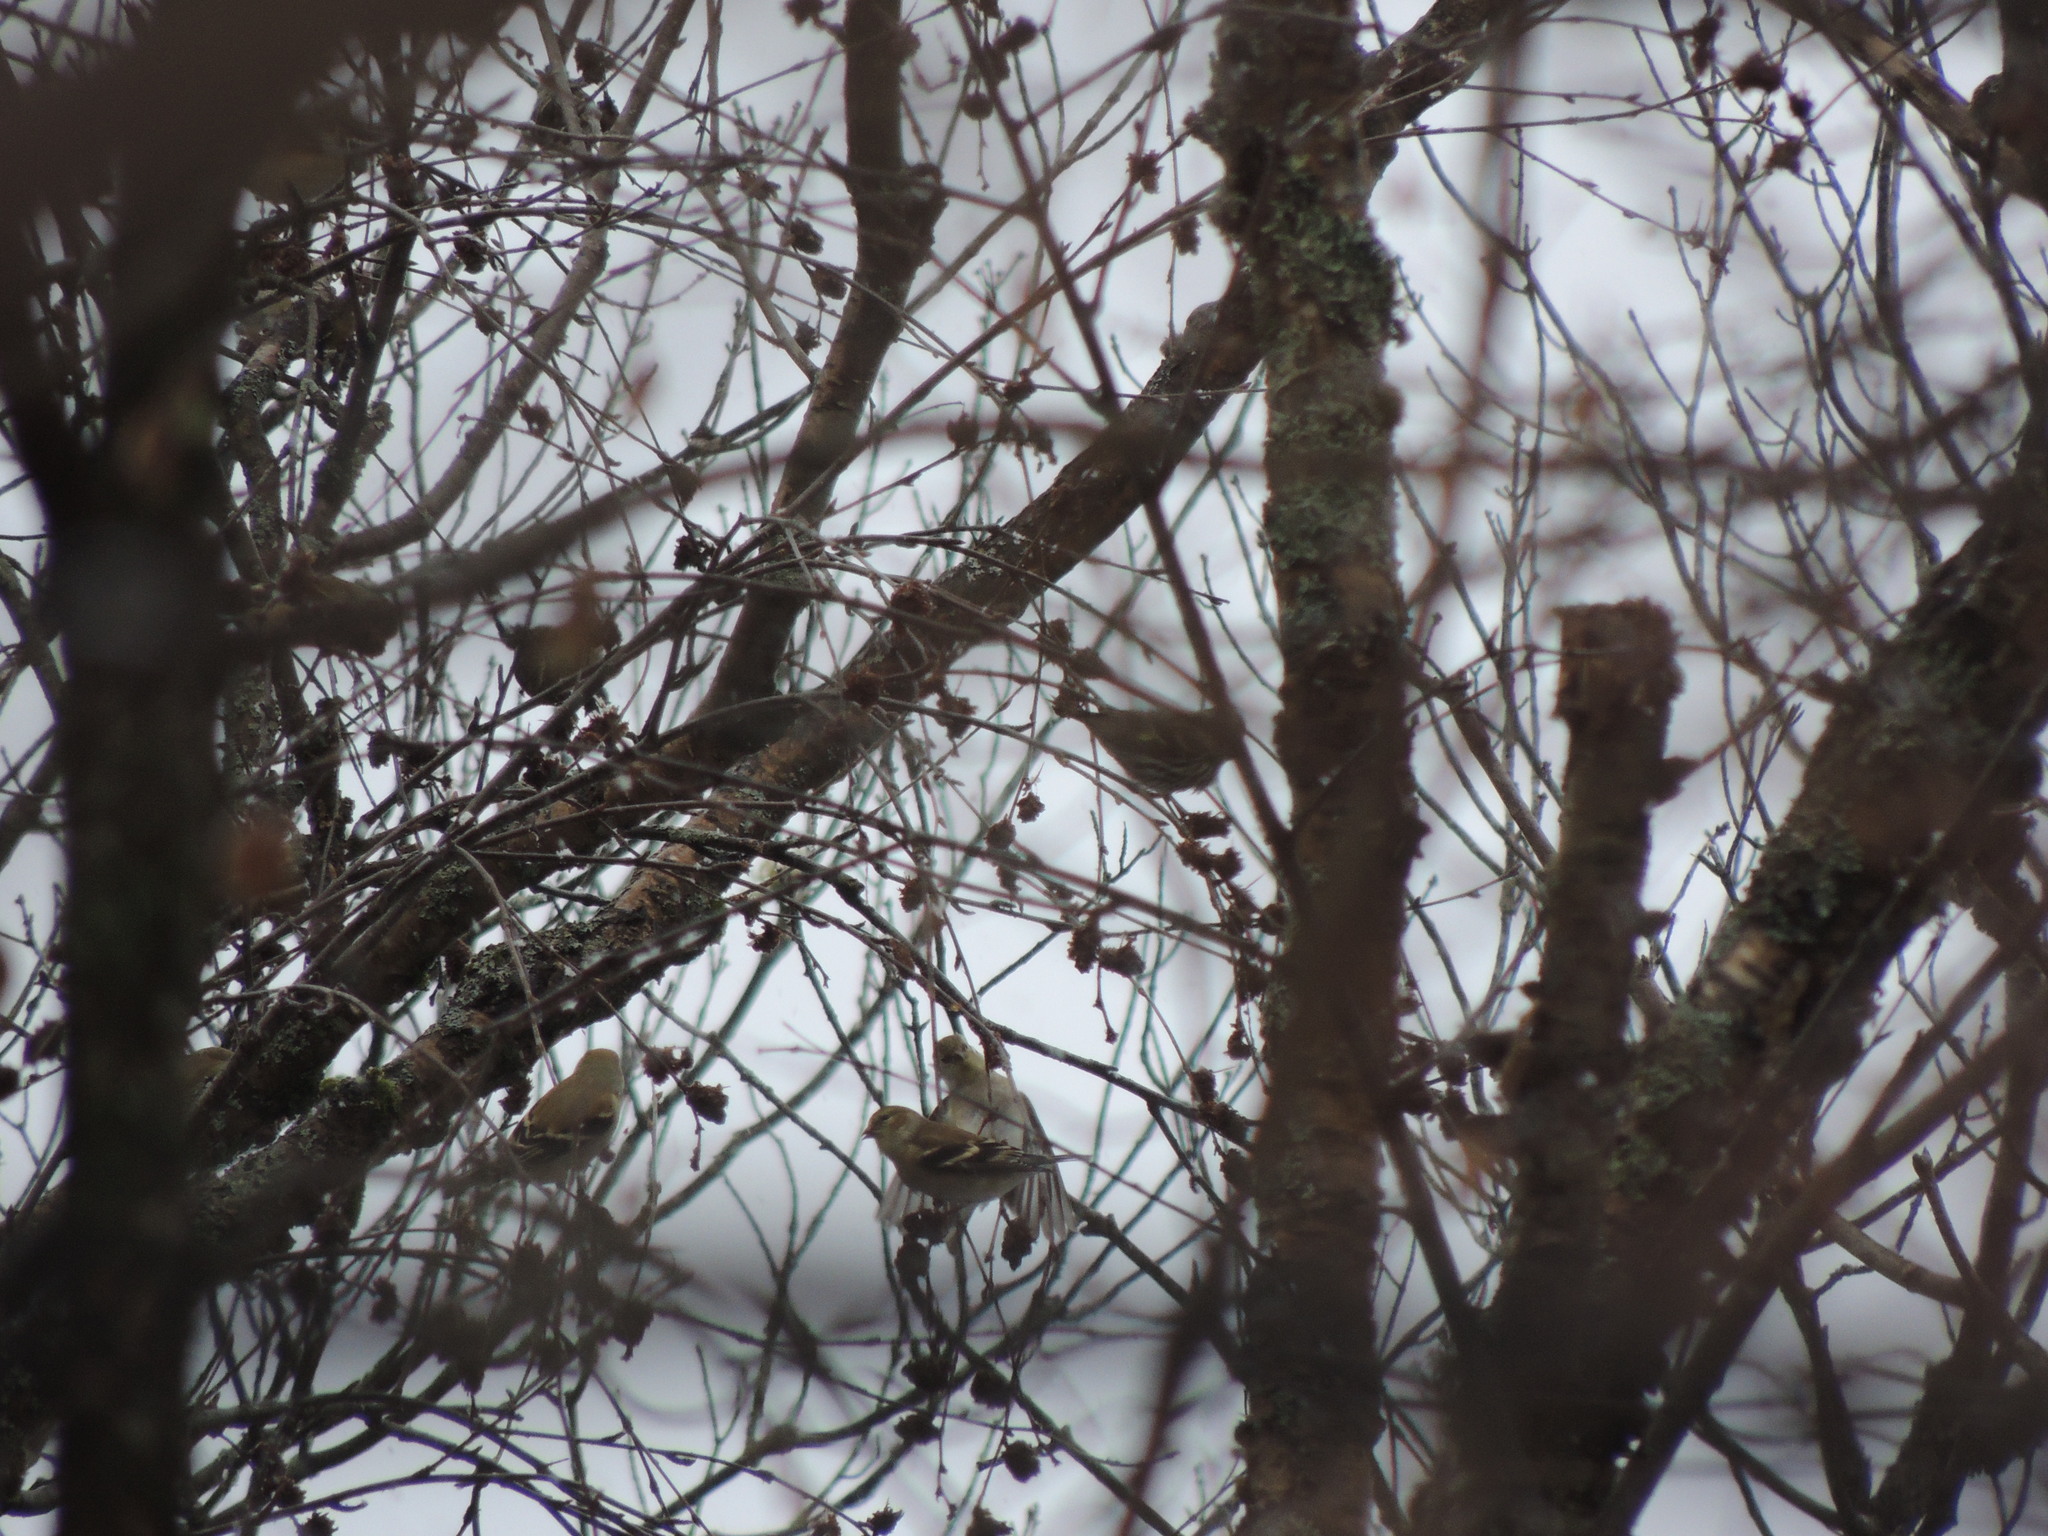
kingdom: Animalia
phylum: Chordata
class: Aves
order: Passeriformes
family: Fringillidae
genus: Spinus
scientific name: Spinus tristis
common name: American goldfinch
